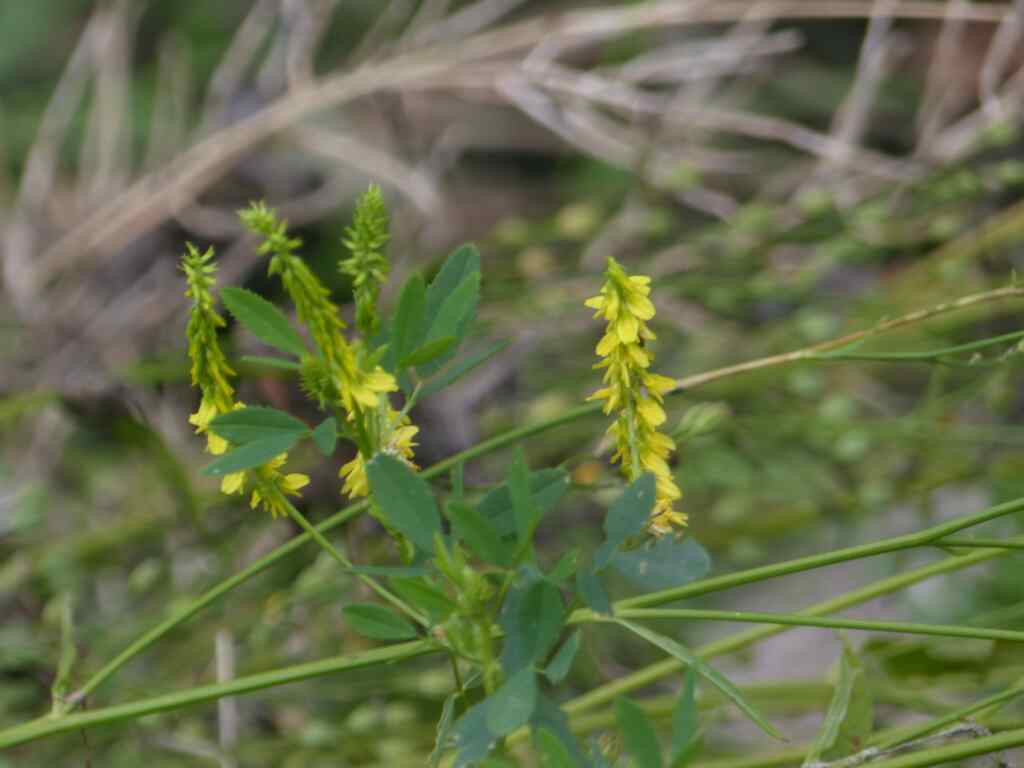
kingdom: Plantae
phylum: Tracheophyta
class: Magnoliopsida
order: Fabales
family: Fabaceae
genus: Melilotus
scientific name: Melilotus officinalis
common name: Sweetclover
